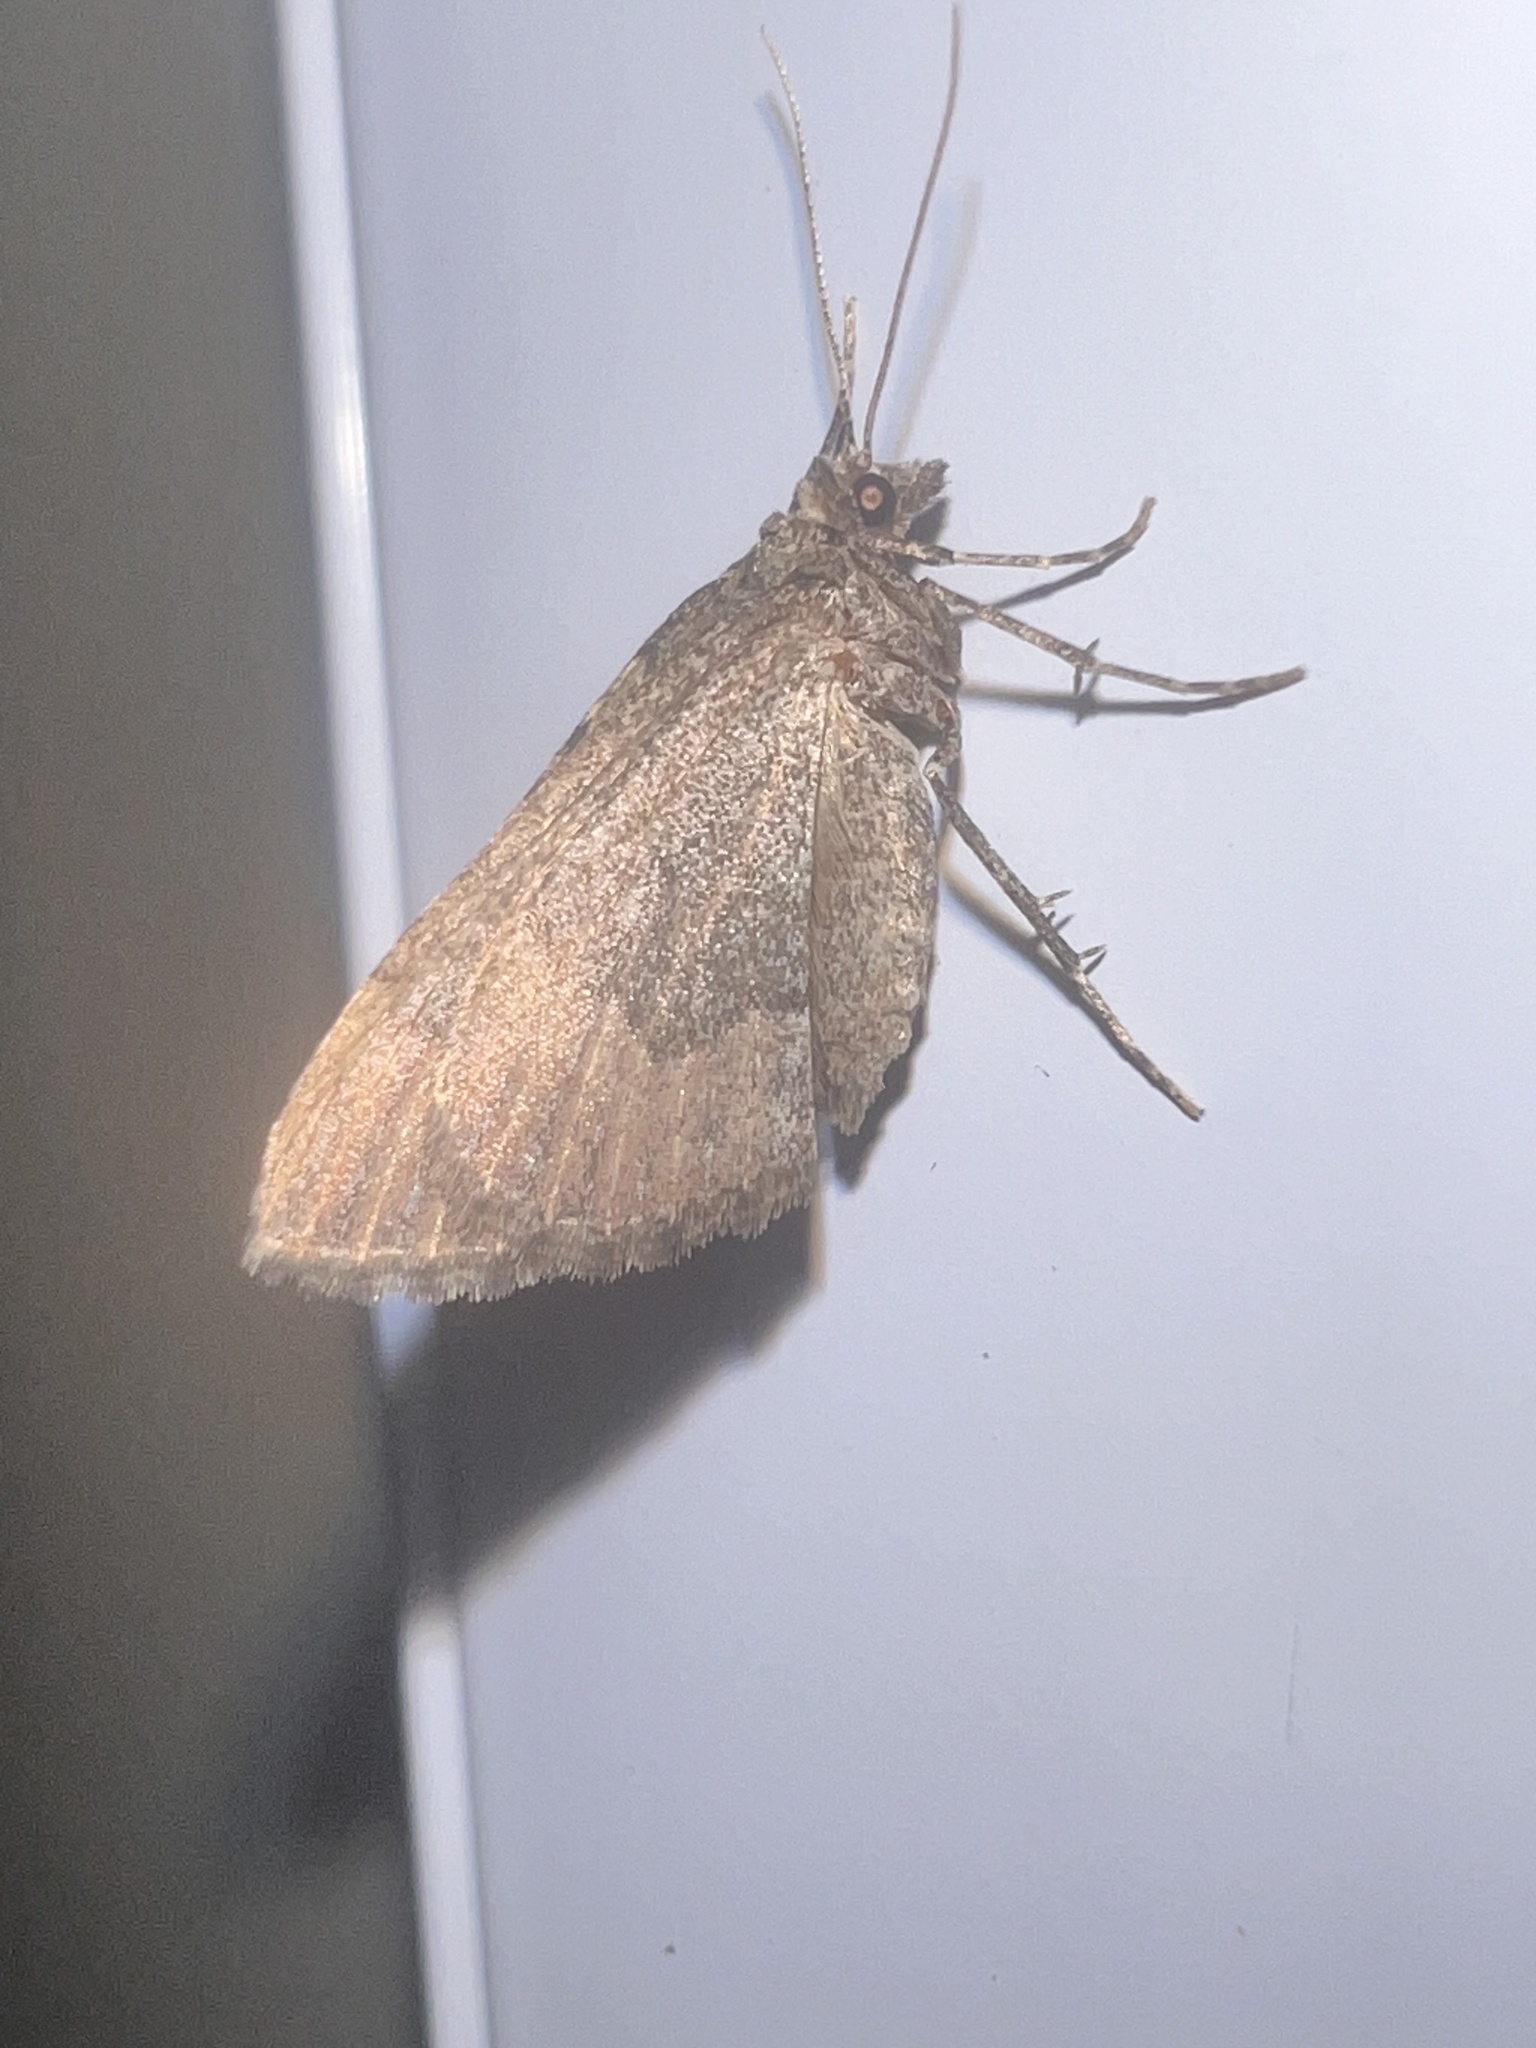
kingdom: Animalia
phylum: Arthropoda
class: Insecta
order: Lepidoptera
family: Geometridae
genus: Epyaxa
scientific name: Epyaxa rosearia
